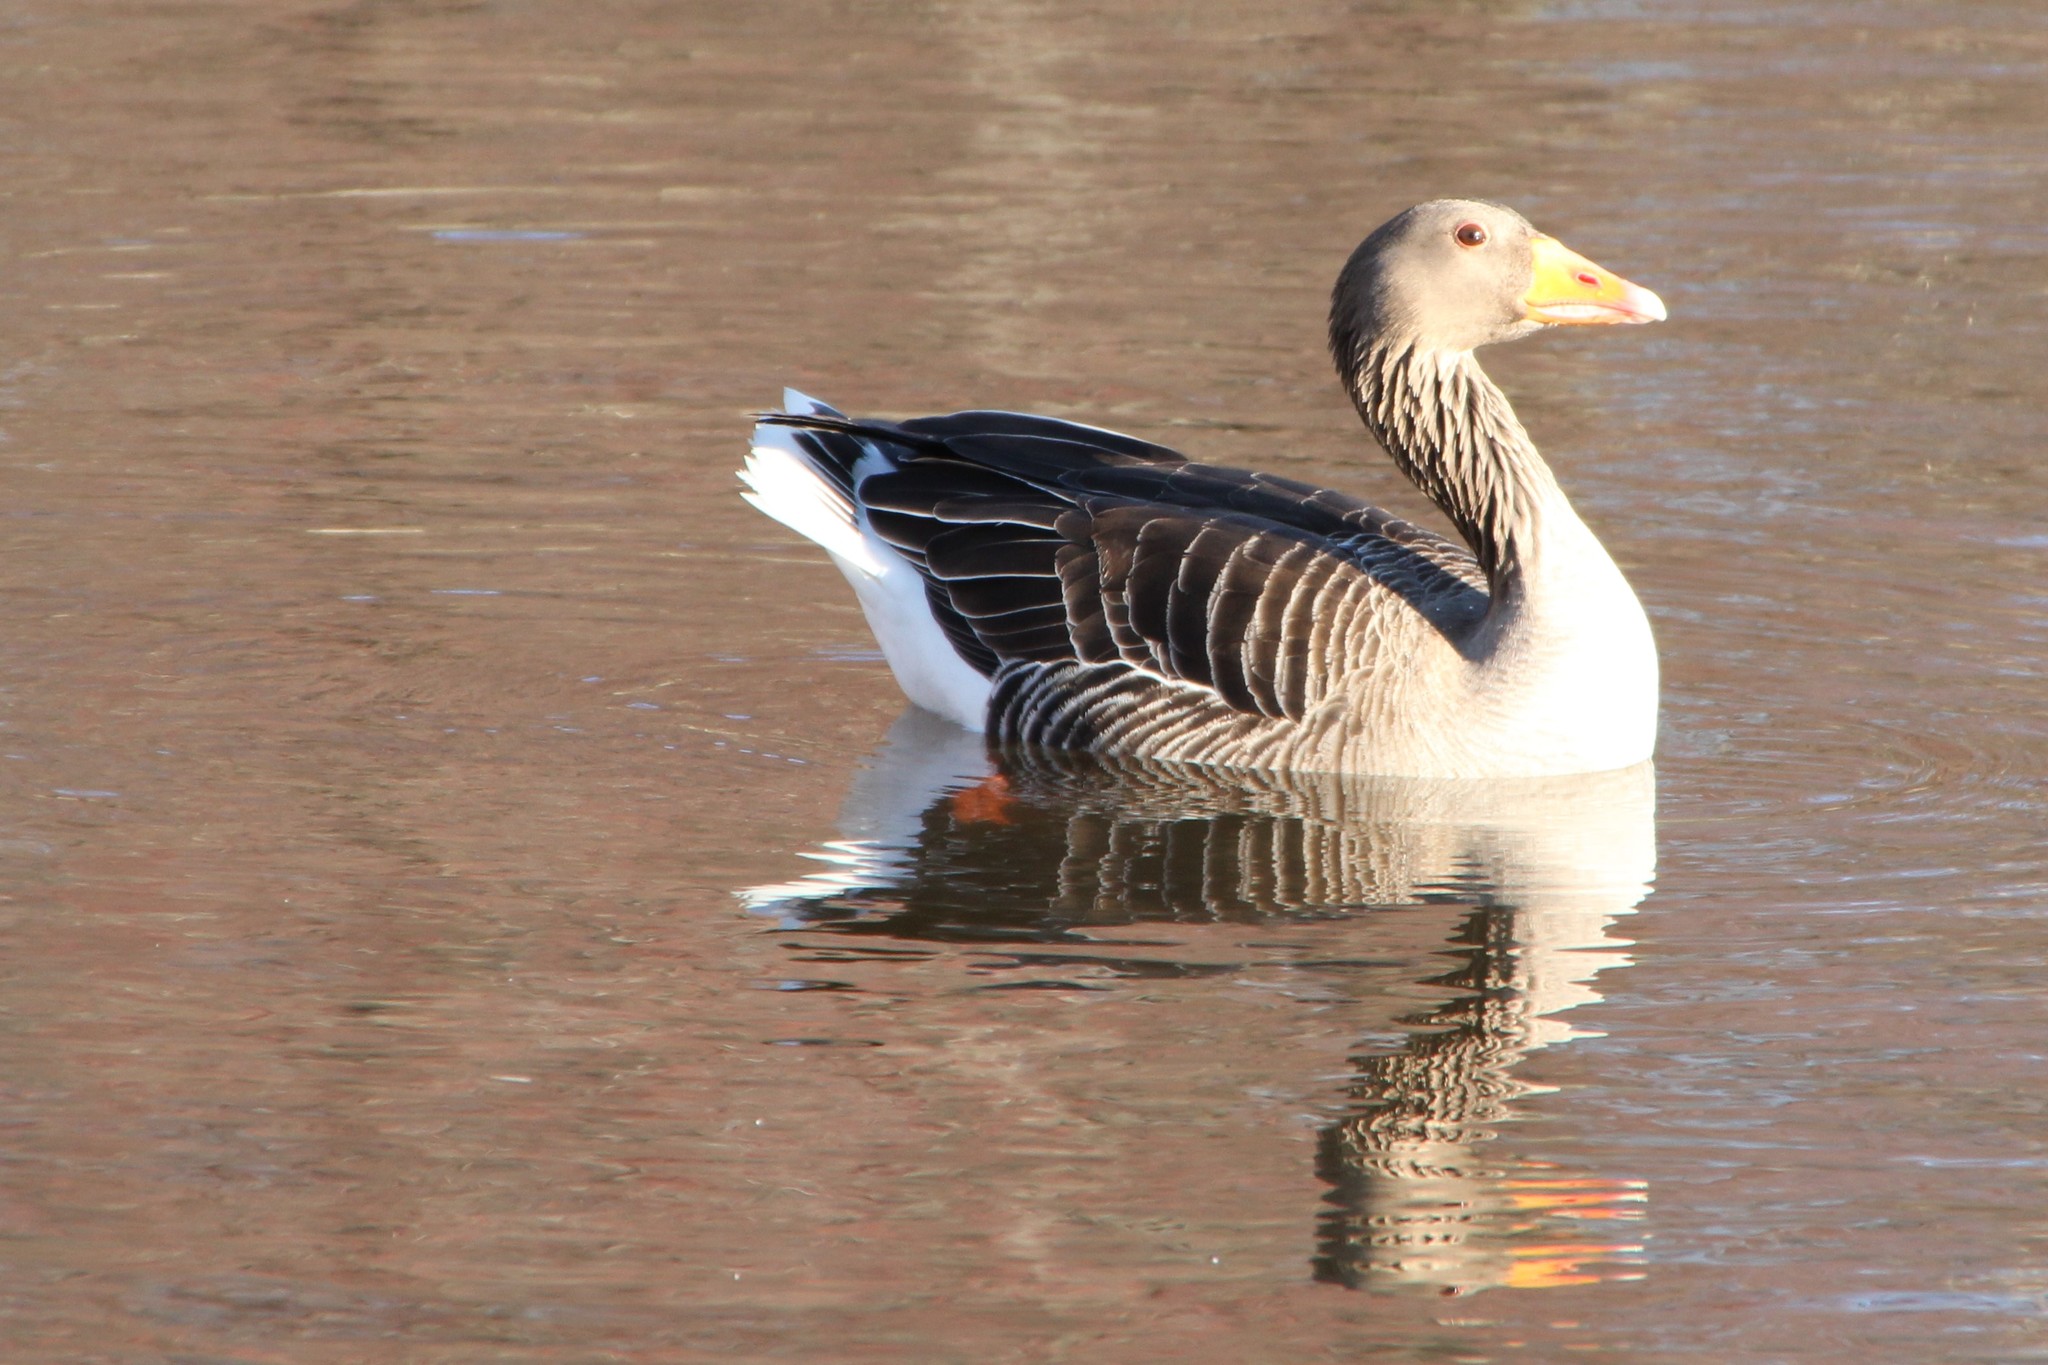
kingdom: Animalia
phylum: Chordata
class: Aves
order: Anseriformes
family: Anatidae
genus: Anser
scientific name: Anser anser
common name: Greylag goose
